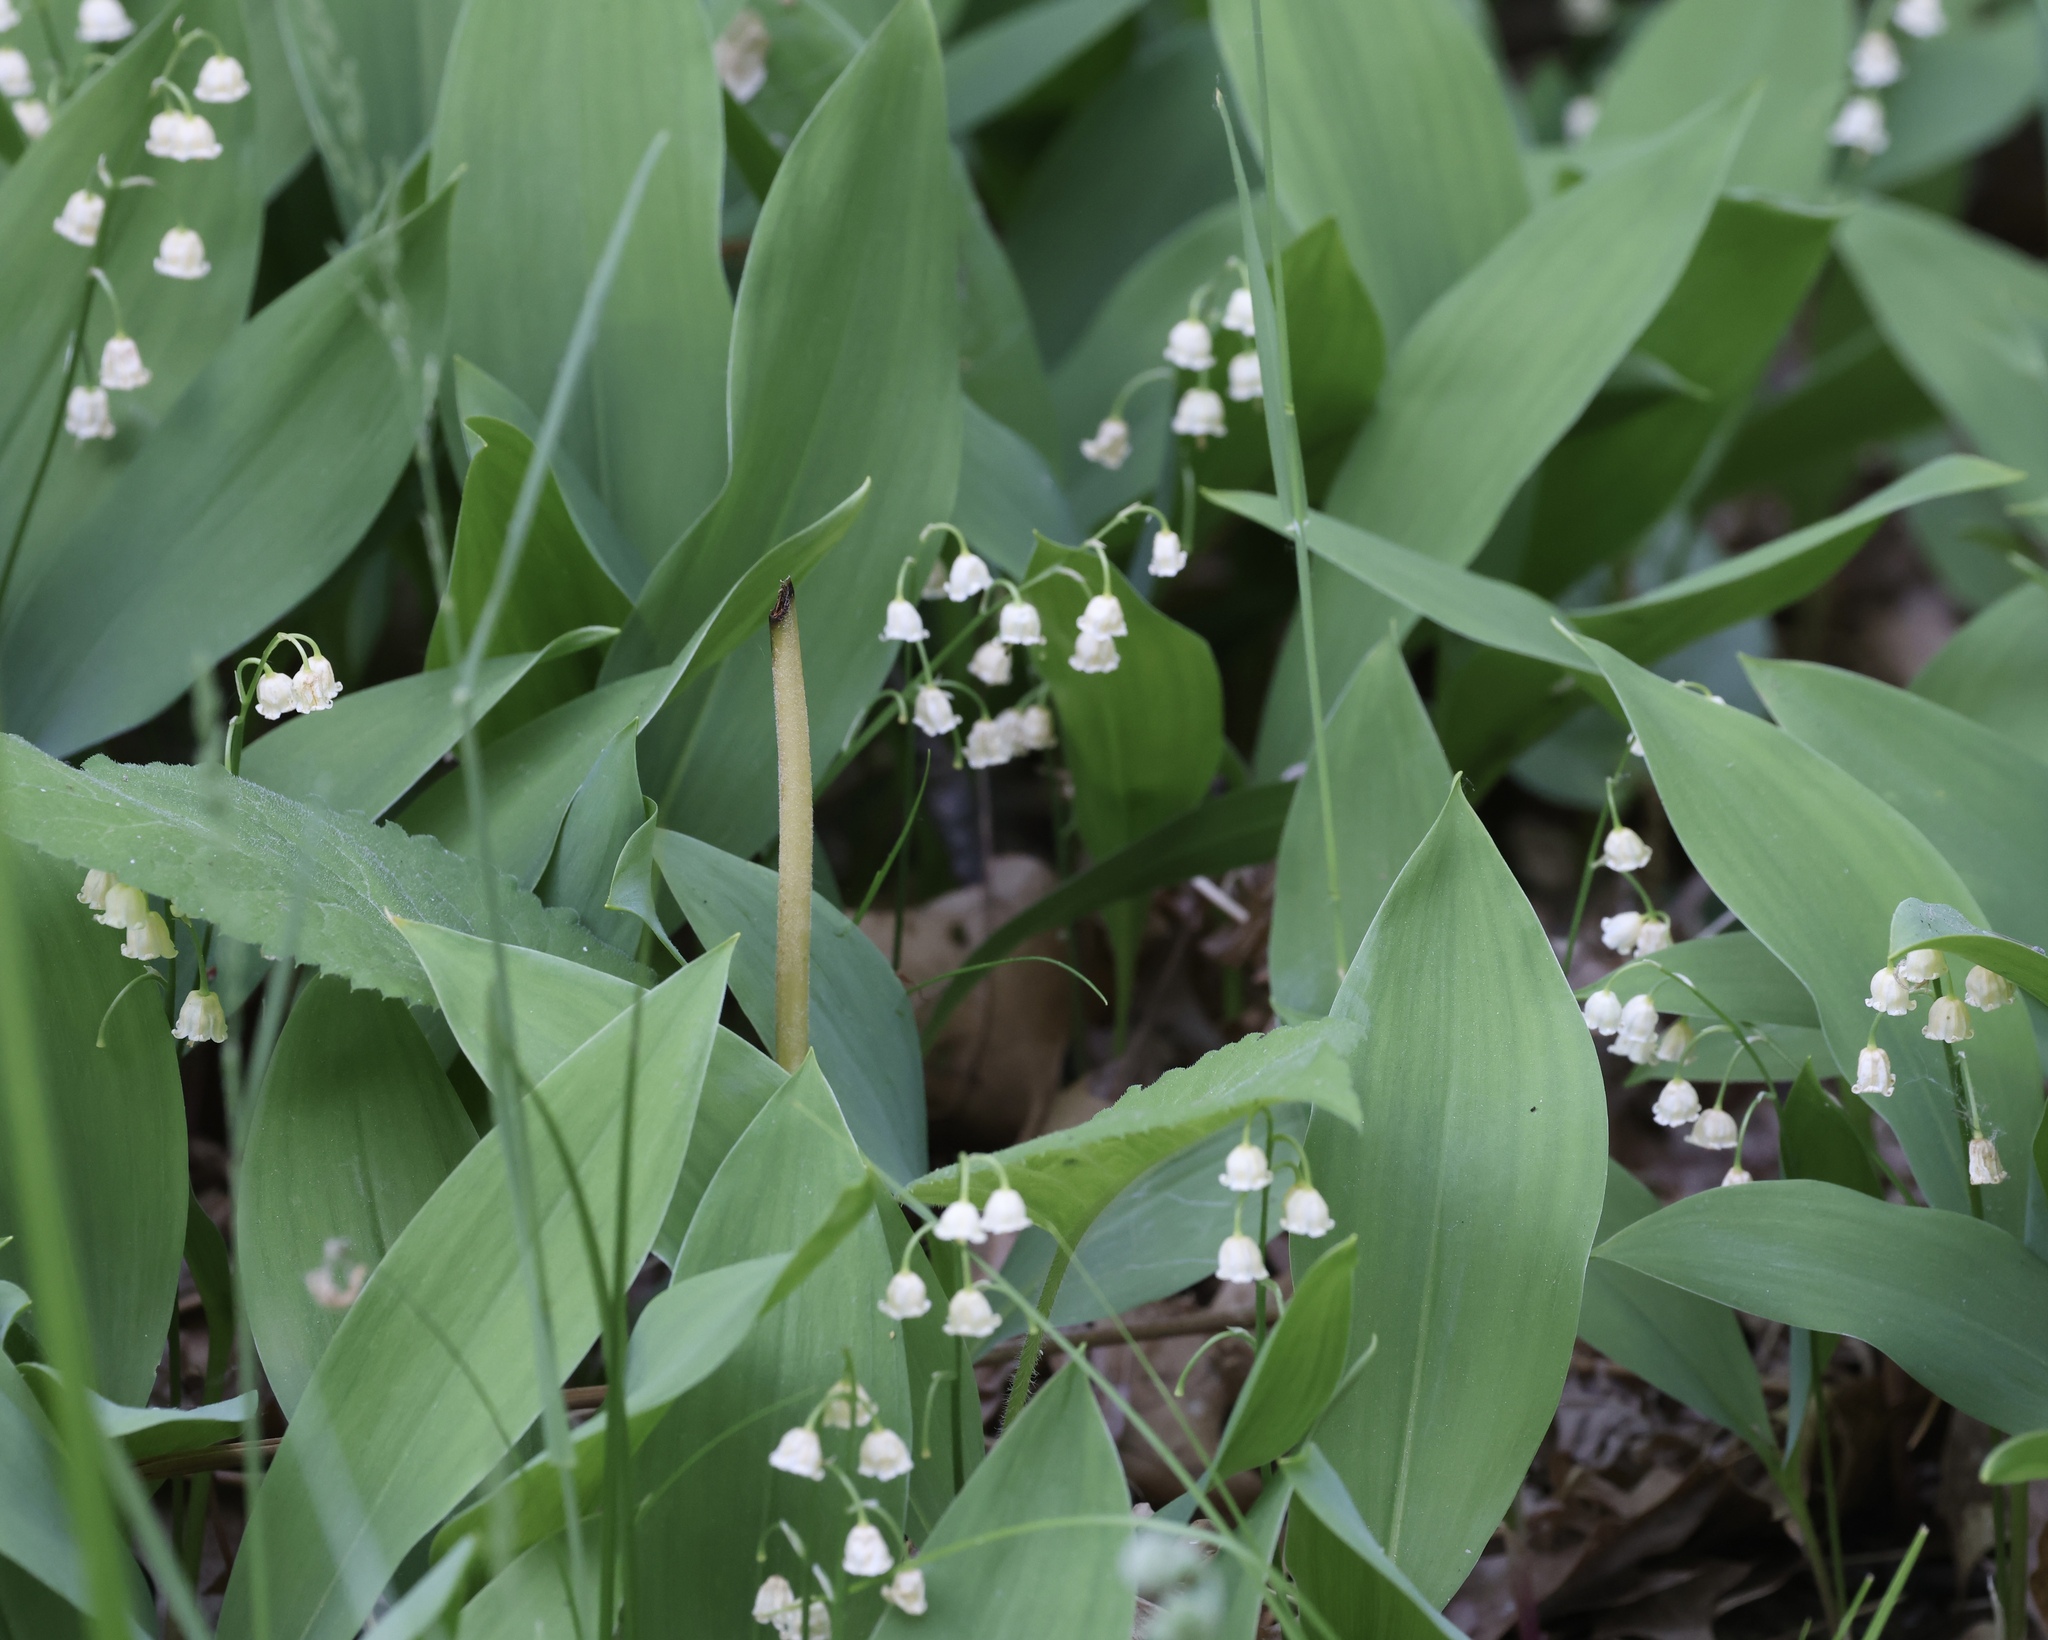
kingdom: Plantae
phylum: Tracheophyta
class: Liliopsida
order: Asparagales
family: Asparagaceae
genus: Convallaria
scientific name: Convallaria majalis
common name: Lily-of-the-valley
